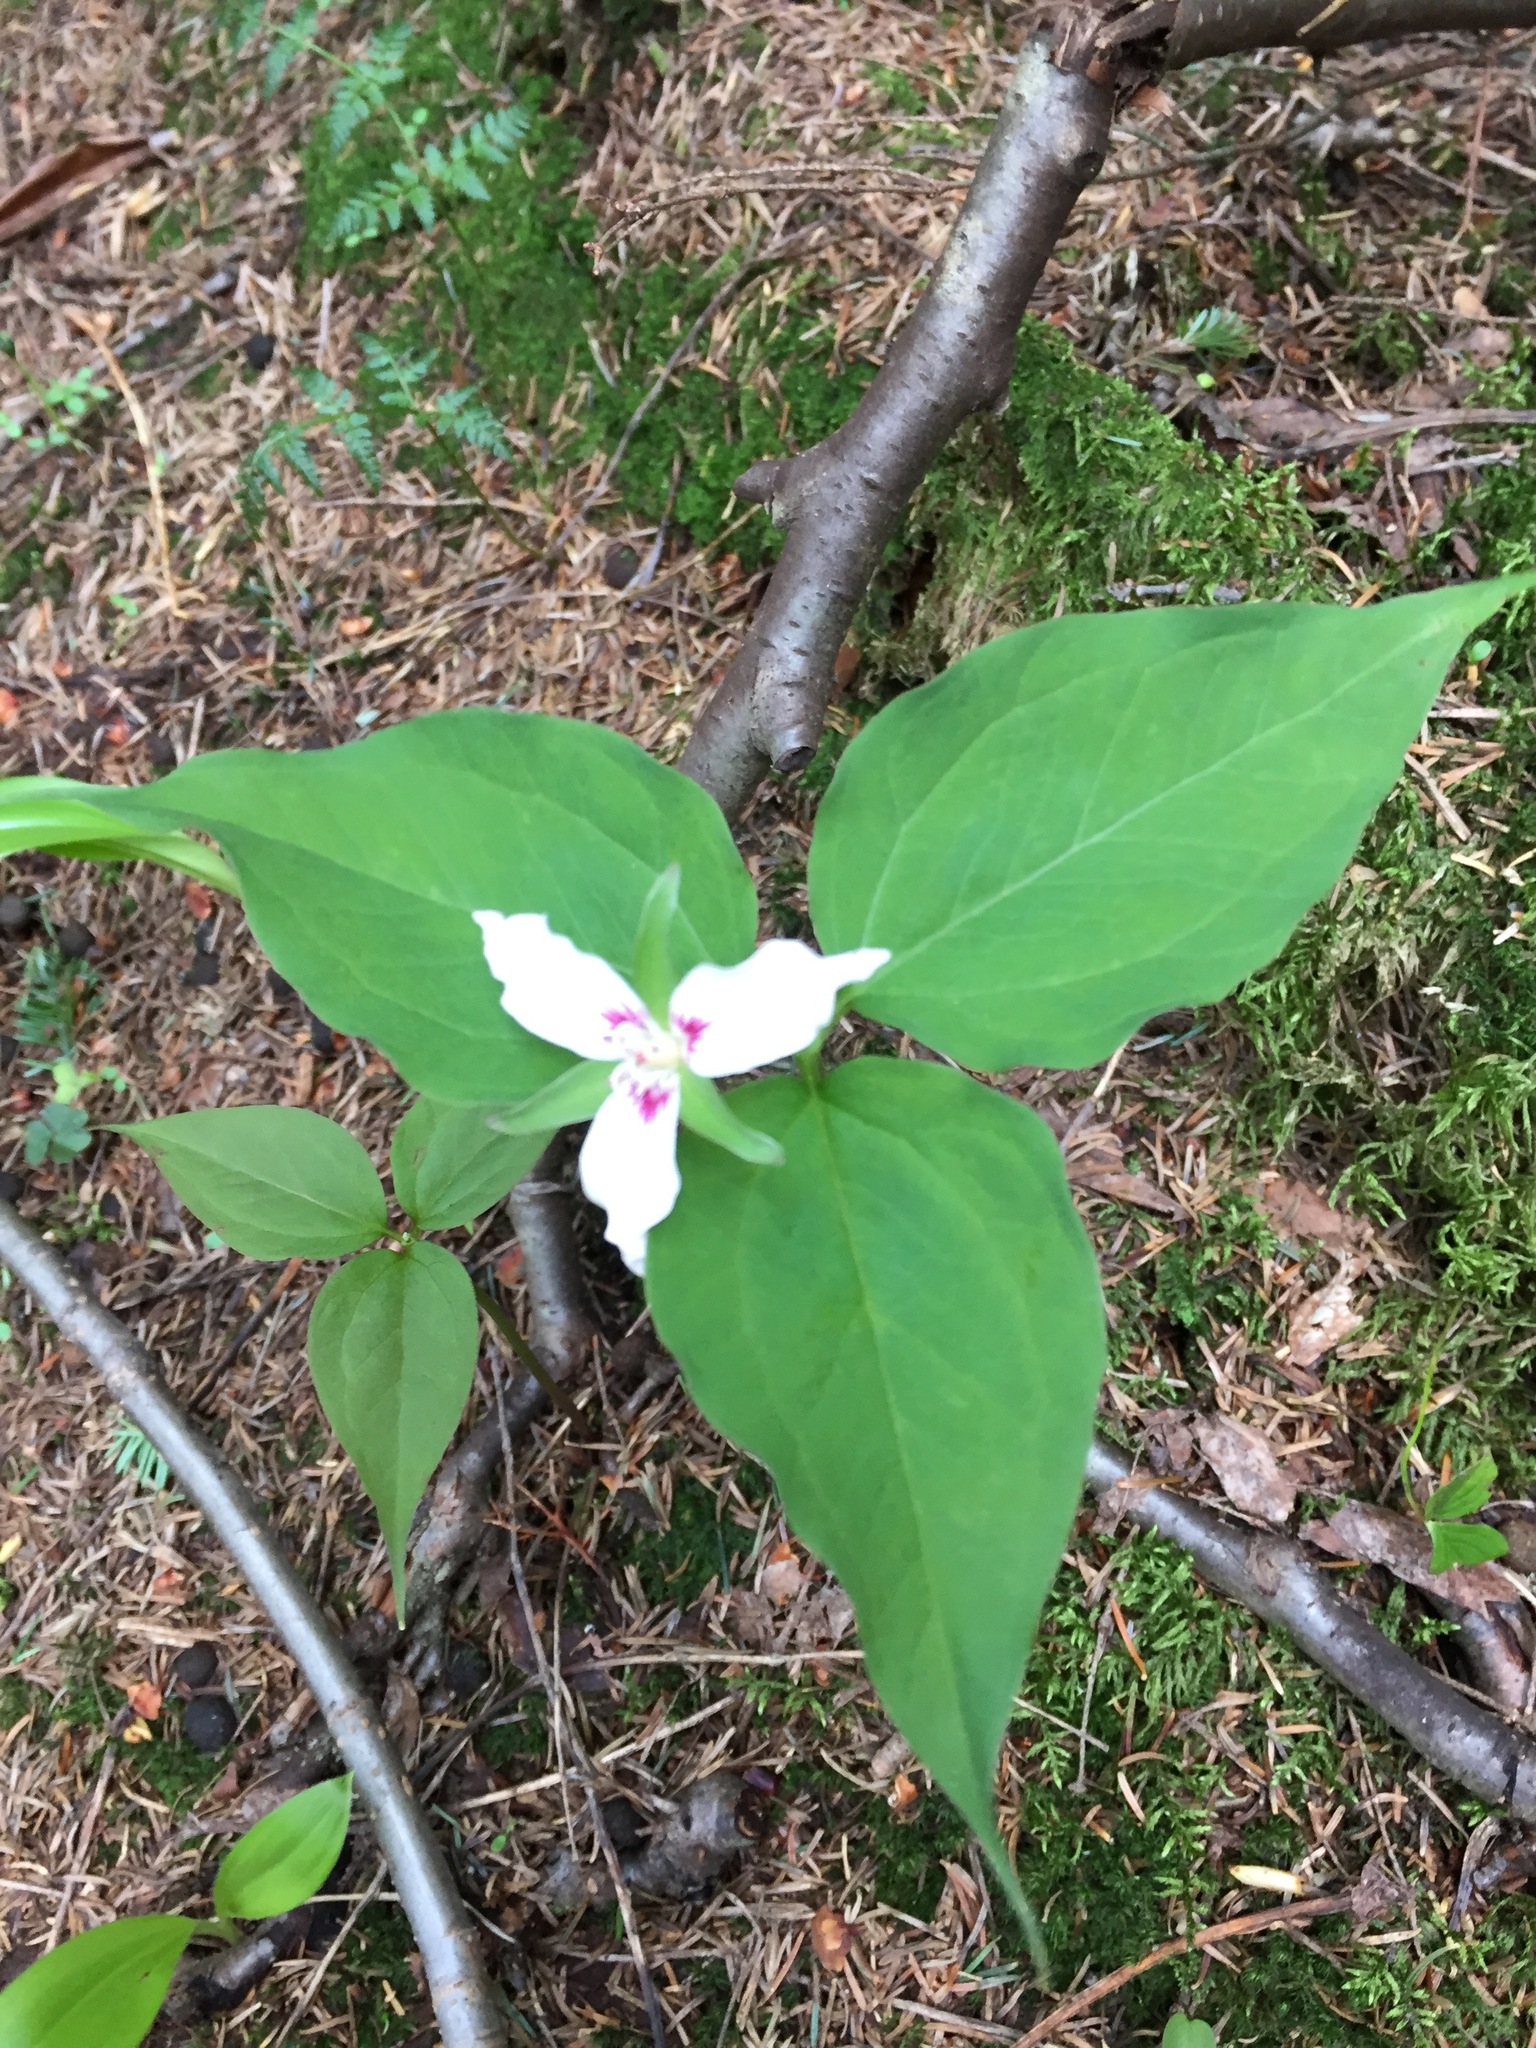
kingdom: Plantae
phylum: Tracheophyta
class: Liliopsida
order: Liliales
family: Melanthiaceae
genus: Trillium
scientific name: Trillium undulatum
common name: Paint trillium
